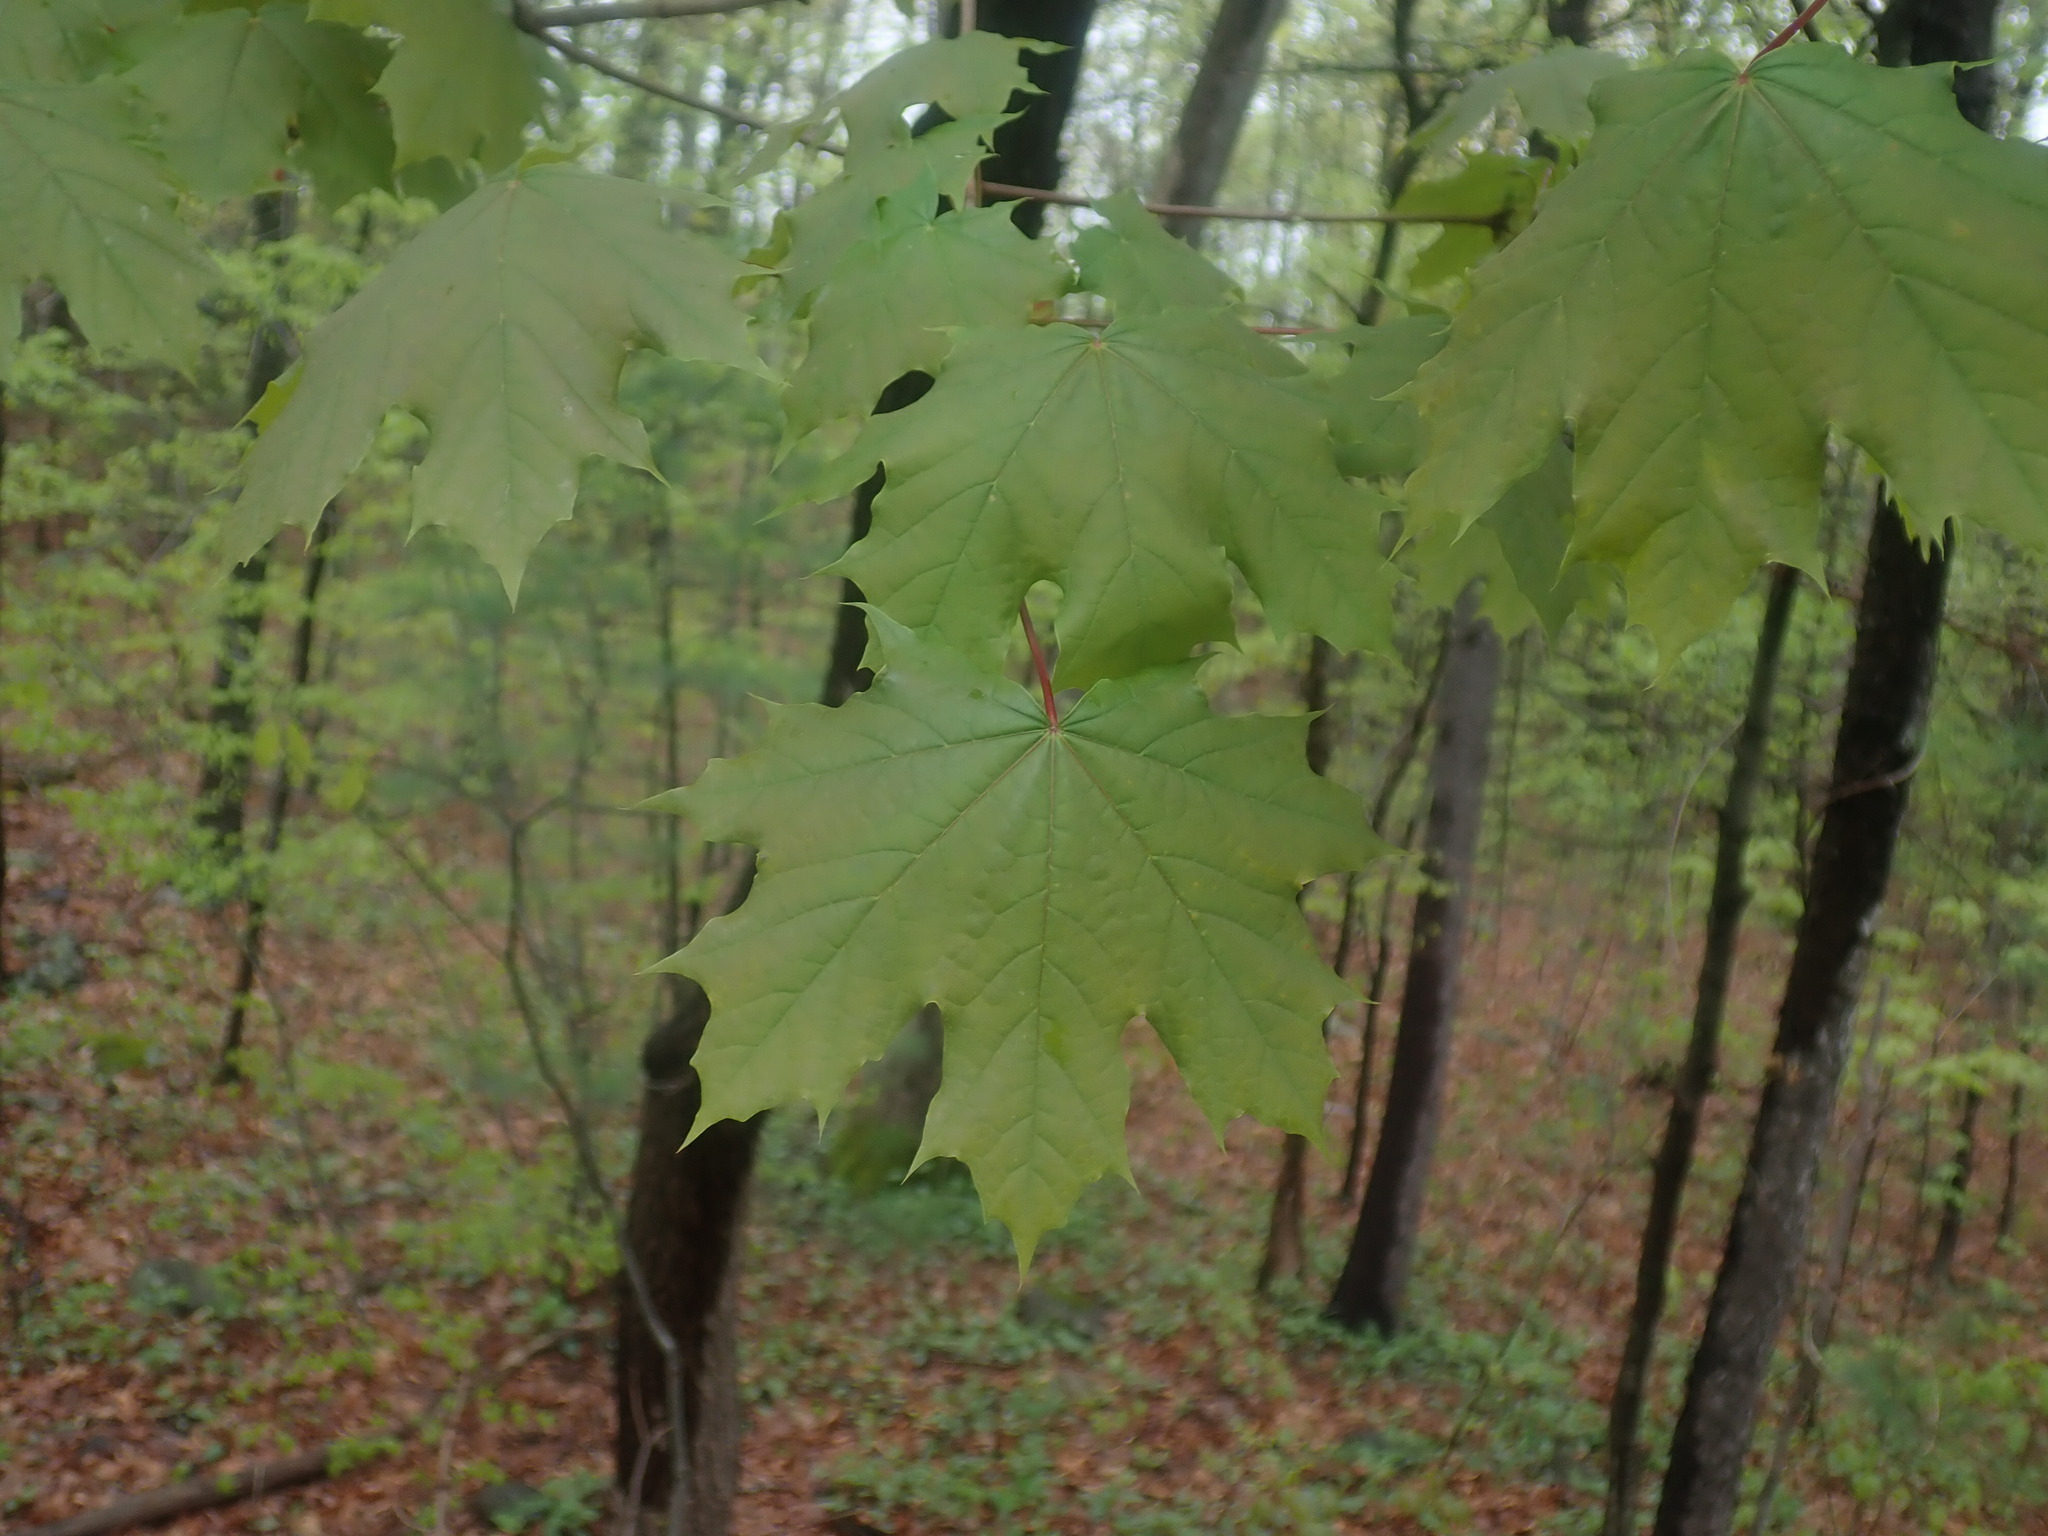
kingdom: Plantae
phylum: Tracheophyta
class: Magnoliopsida
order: Sapindales
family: Sapindaceae
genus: Acer
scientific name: Acer platanoides
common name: Norway maple
